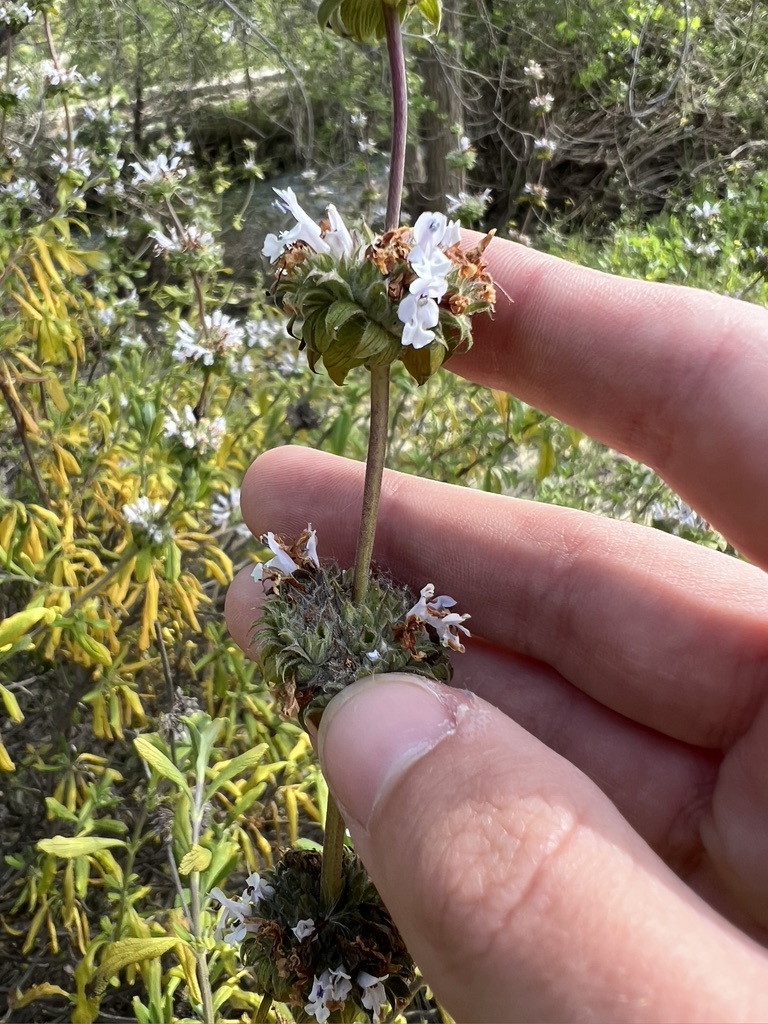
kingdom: Plantae
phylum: Tracheophyta
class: Magnoliopsida
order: Lamiales
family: Lamiaceae
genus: Salvia
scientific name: Salvia mellifera
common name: Black sage
